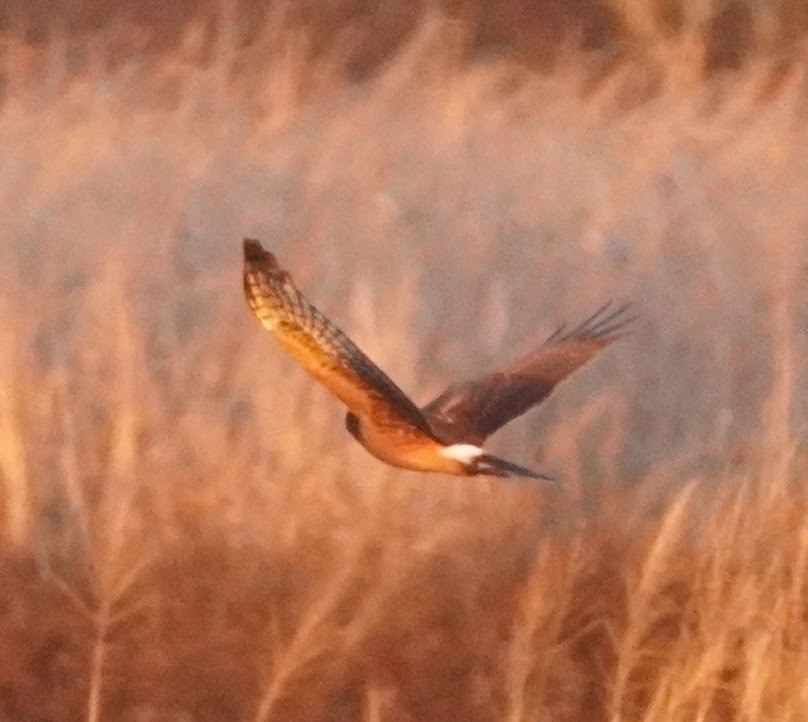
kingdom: Animalia
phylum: Chordata
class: Aves
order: Accipitriformes
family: Accipitridae
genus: Circus
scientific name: Circus cyaneus
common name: Hen harrier
